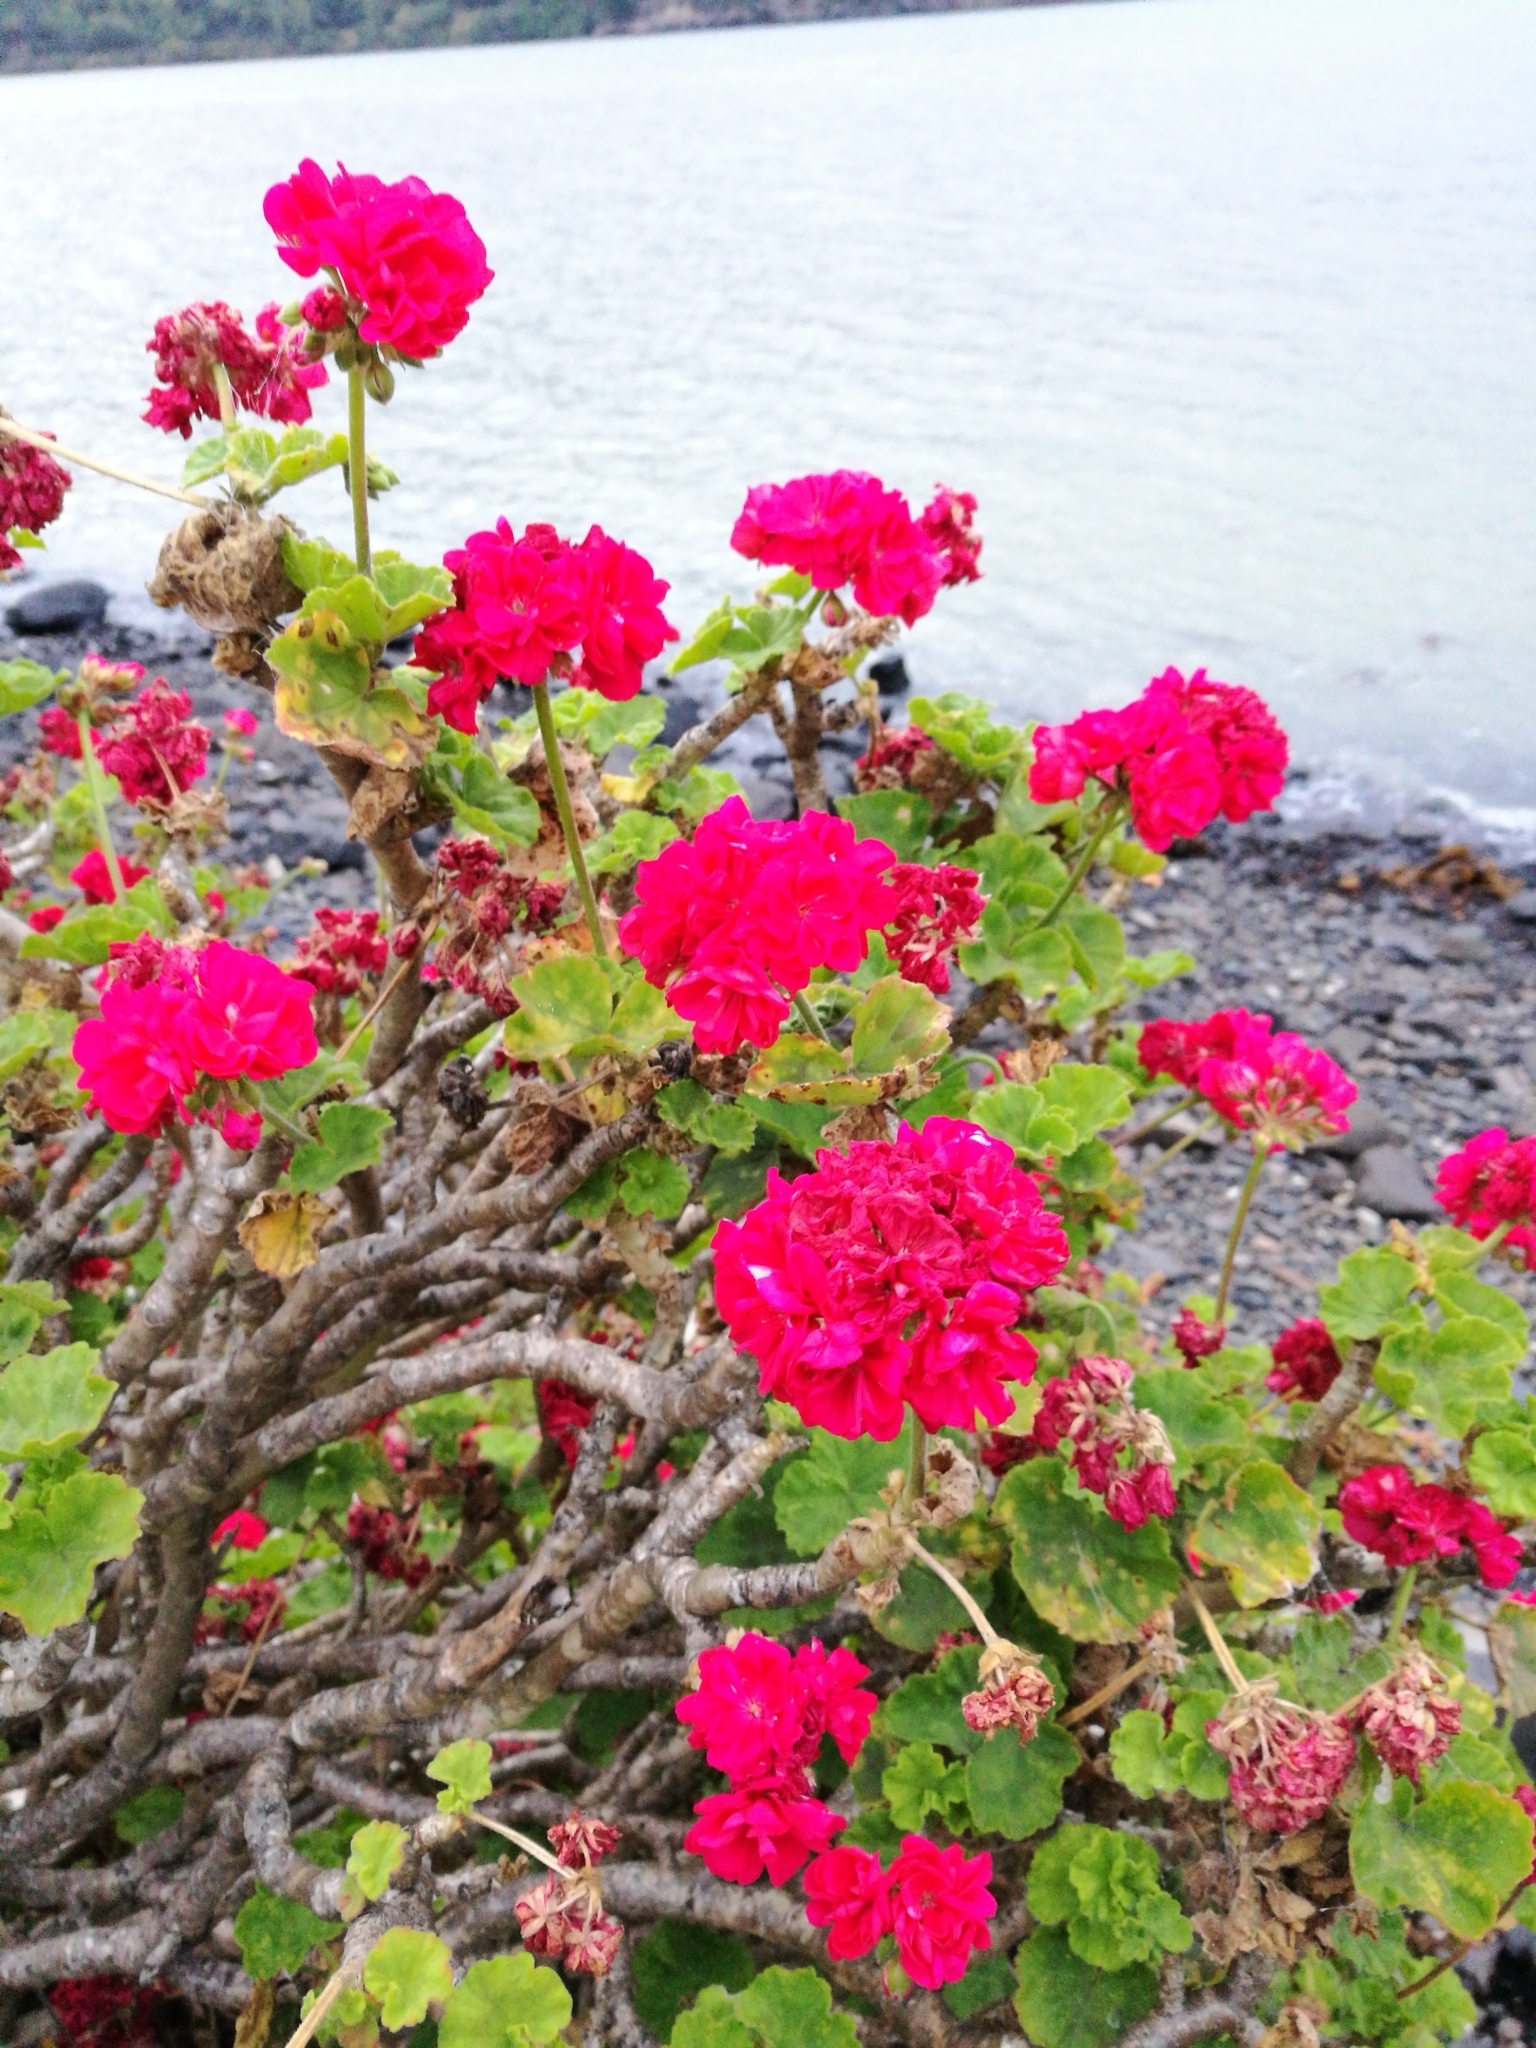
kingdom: Plantae
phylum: Tracheophyta
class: Magnoliopsida
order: Geraniales
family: Geraniaceae
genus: Pelargonium
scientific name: Pelargonium hybridum
